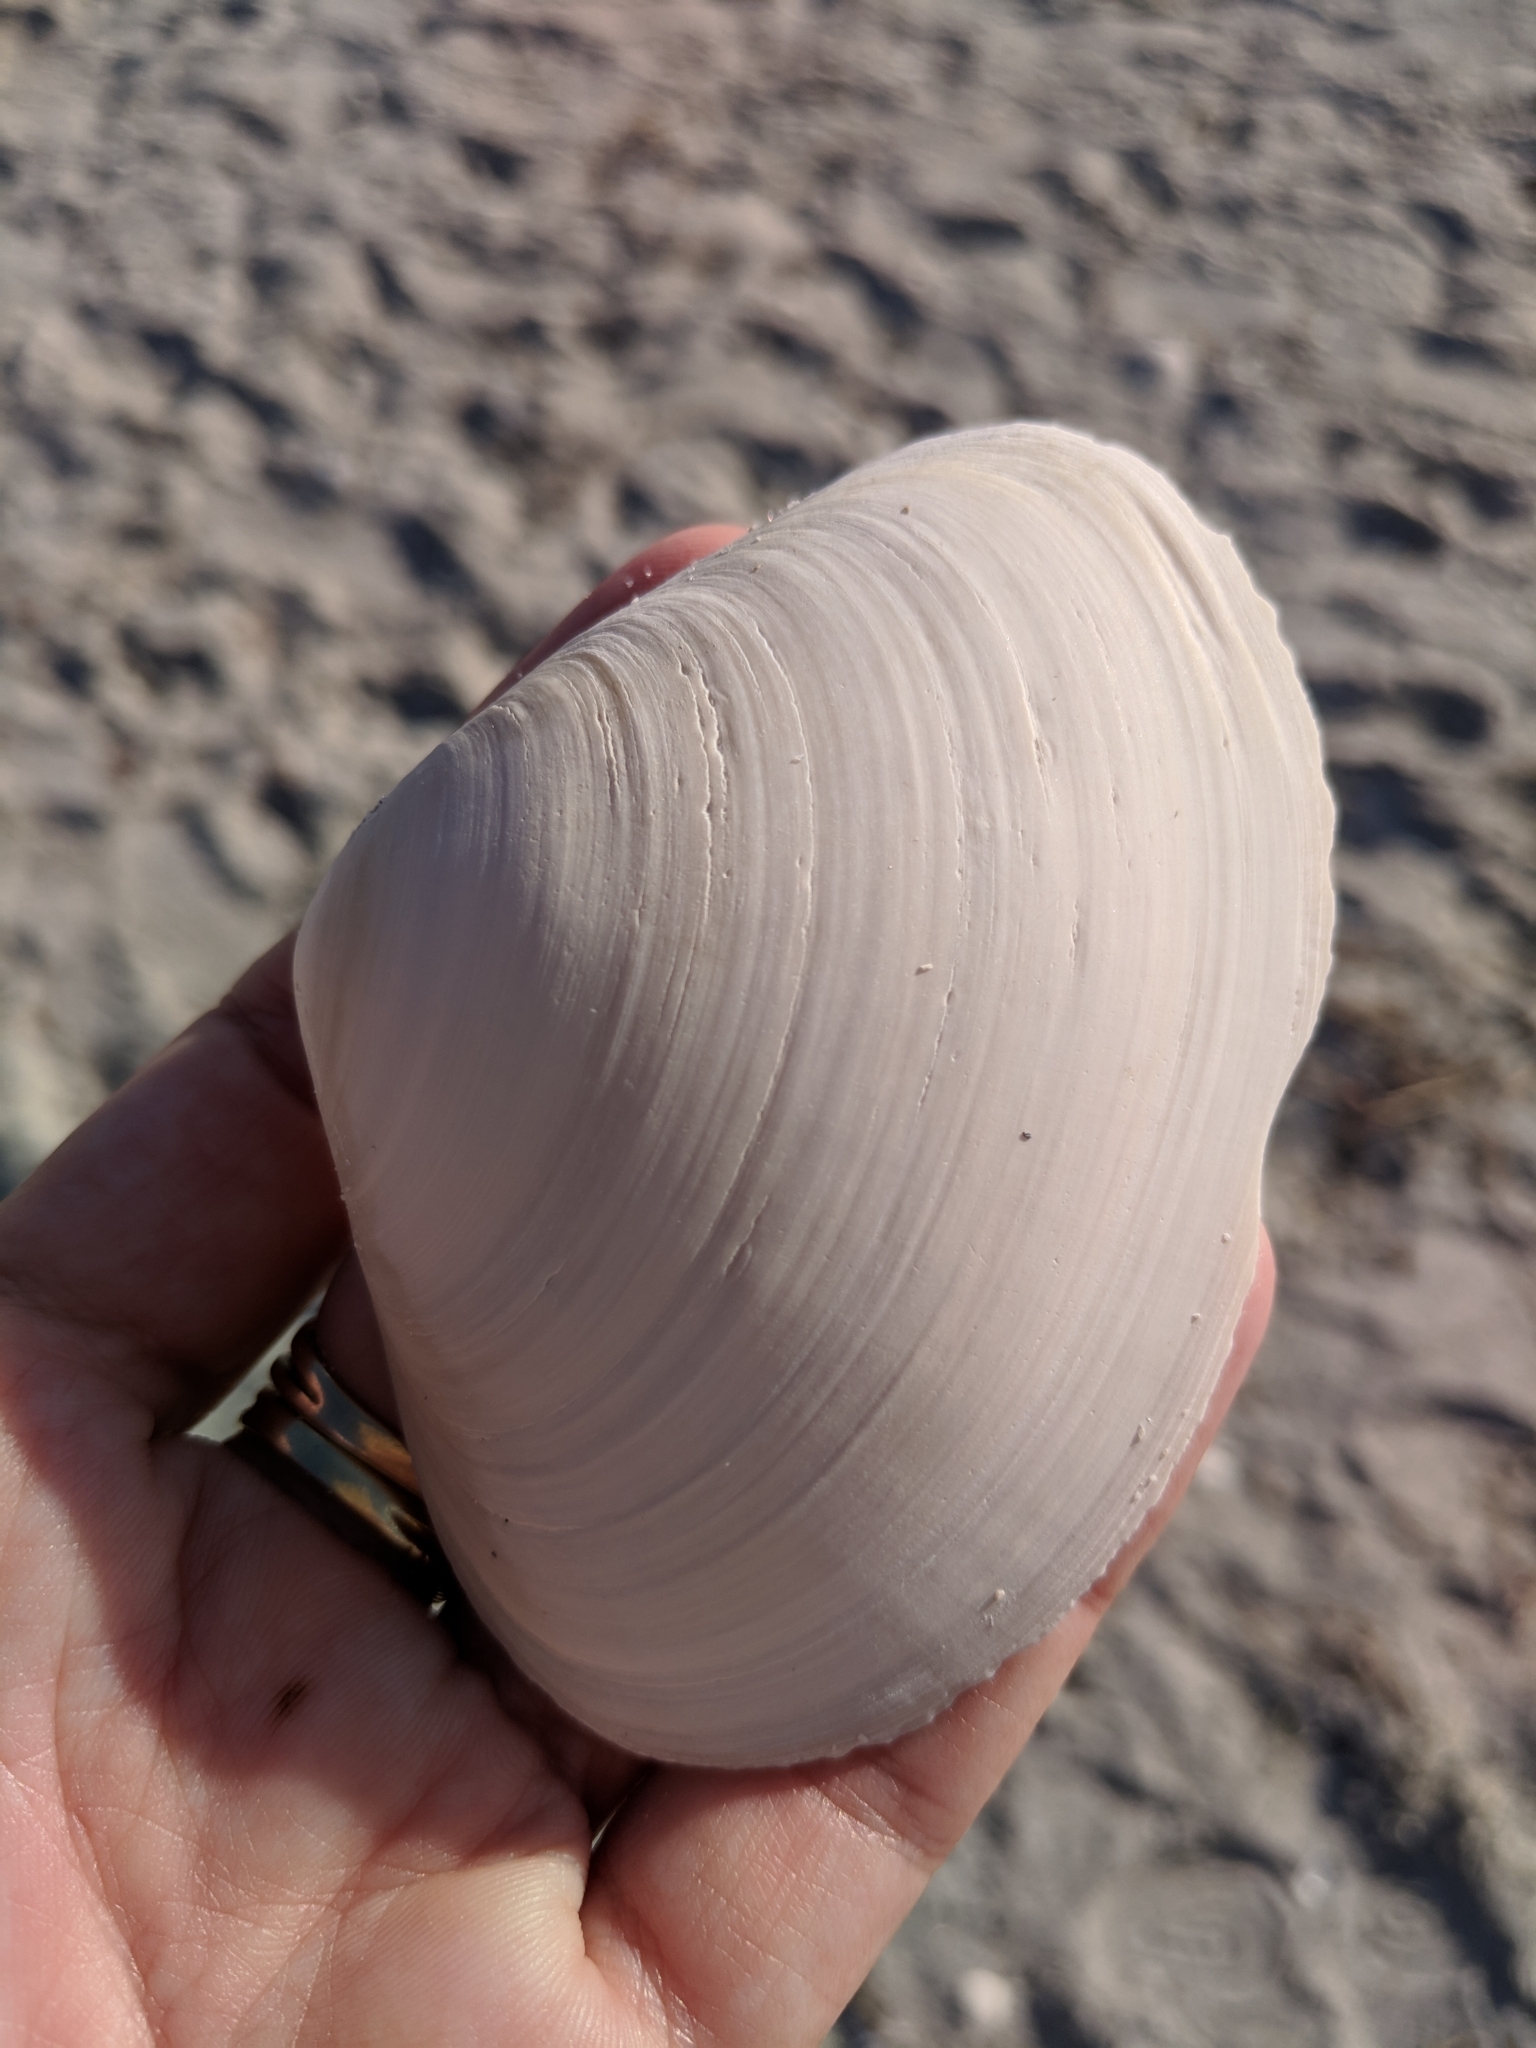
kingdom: Animalia
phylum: Mollusca
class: Bivalvia
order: Venerida
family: Mactridae
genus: Spisula
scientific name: Spisula solidissima
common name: Atlantic surf clam
